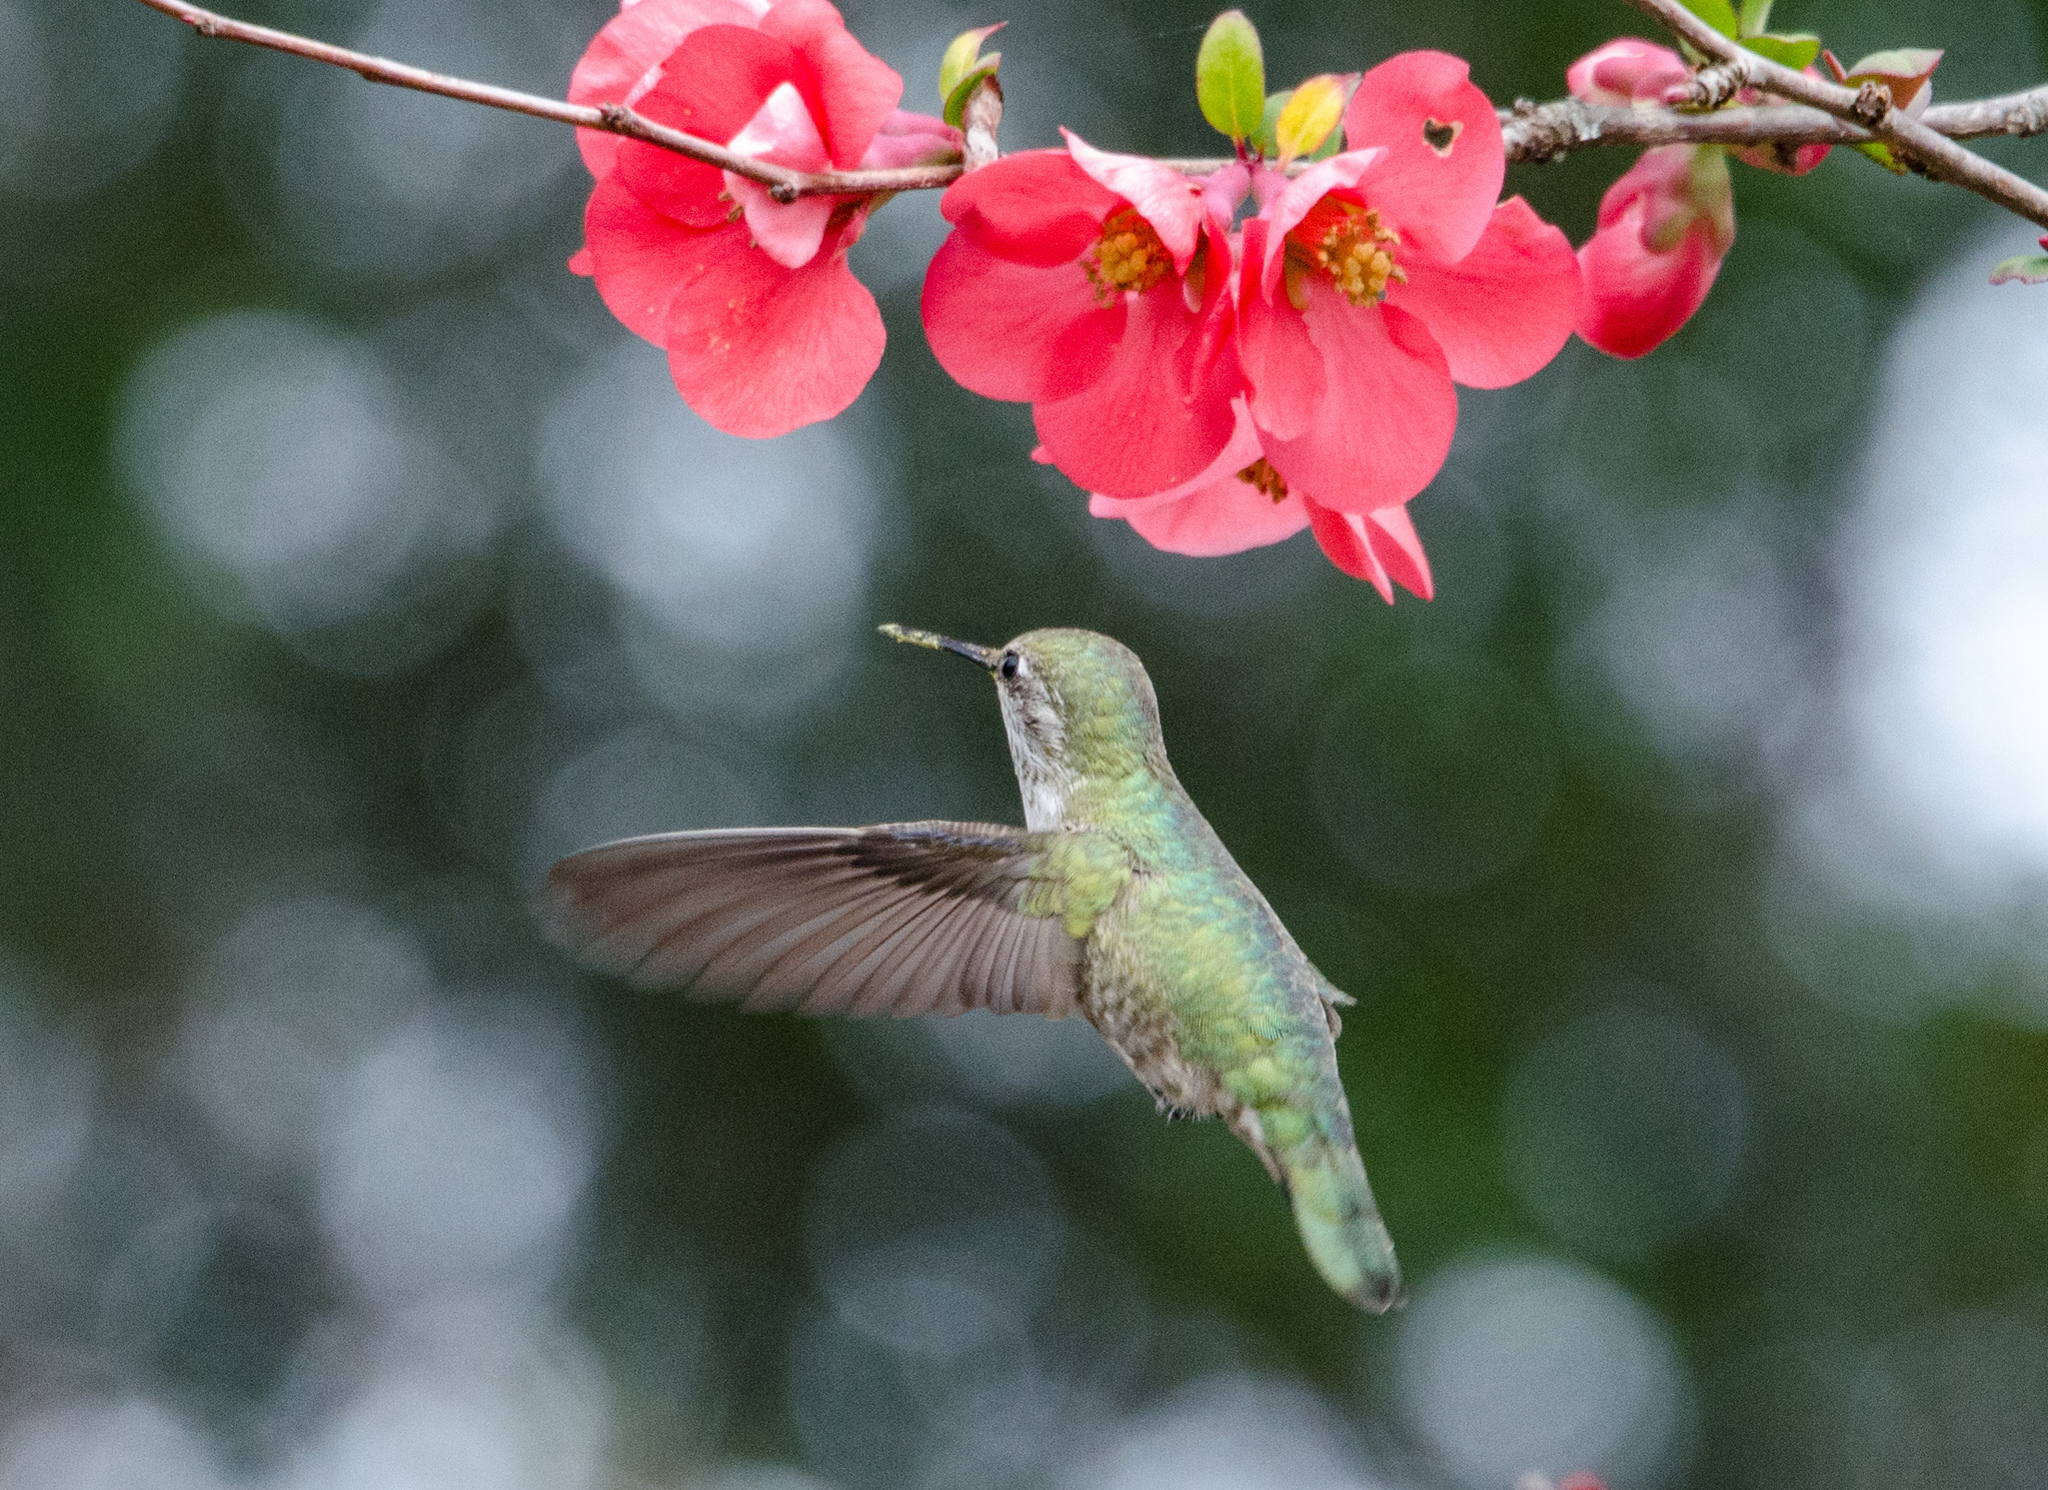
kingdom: Animalia
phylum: Chordata
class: Aves
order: Apodiformes
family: Trochilidae
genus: Calypte
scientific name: Calypte anna
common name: Anna's hummingbird
